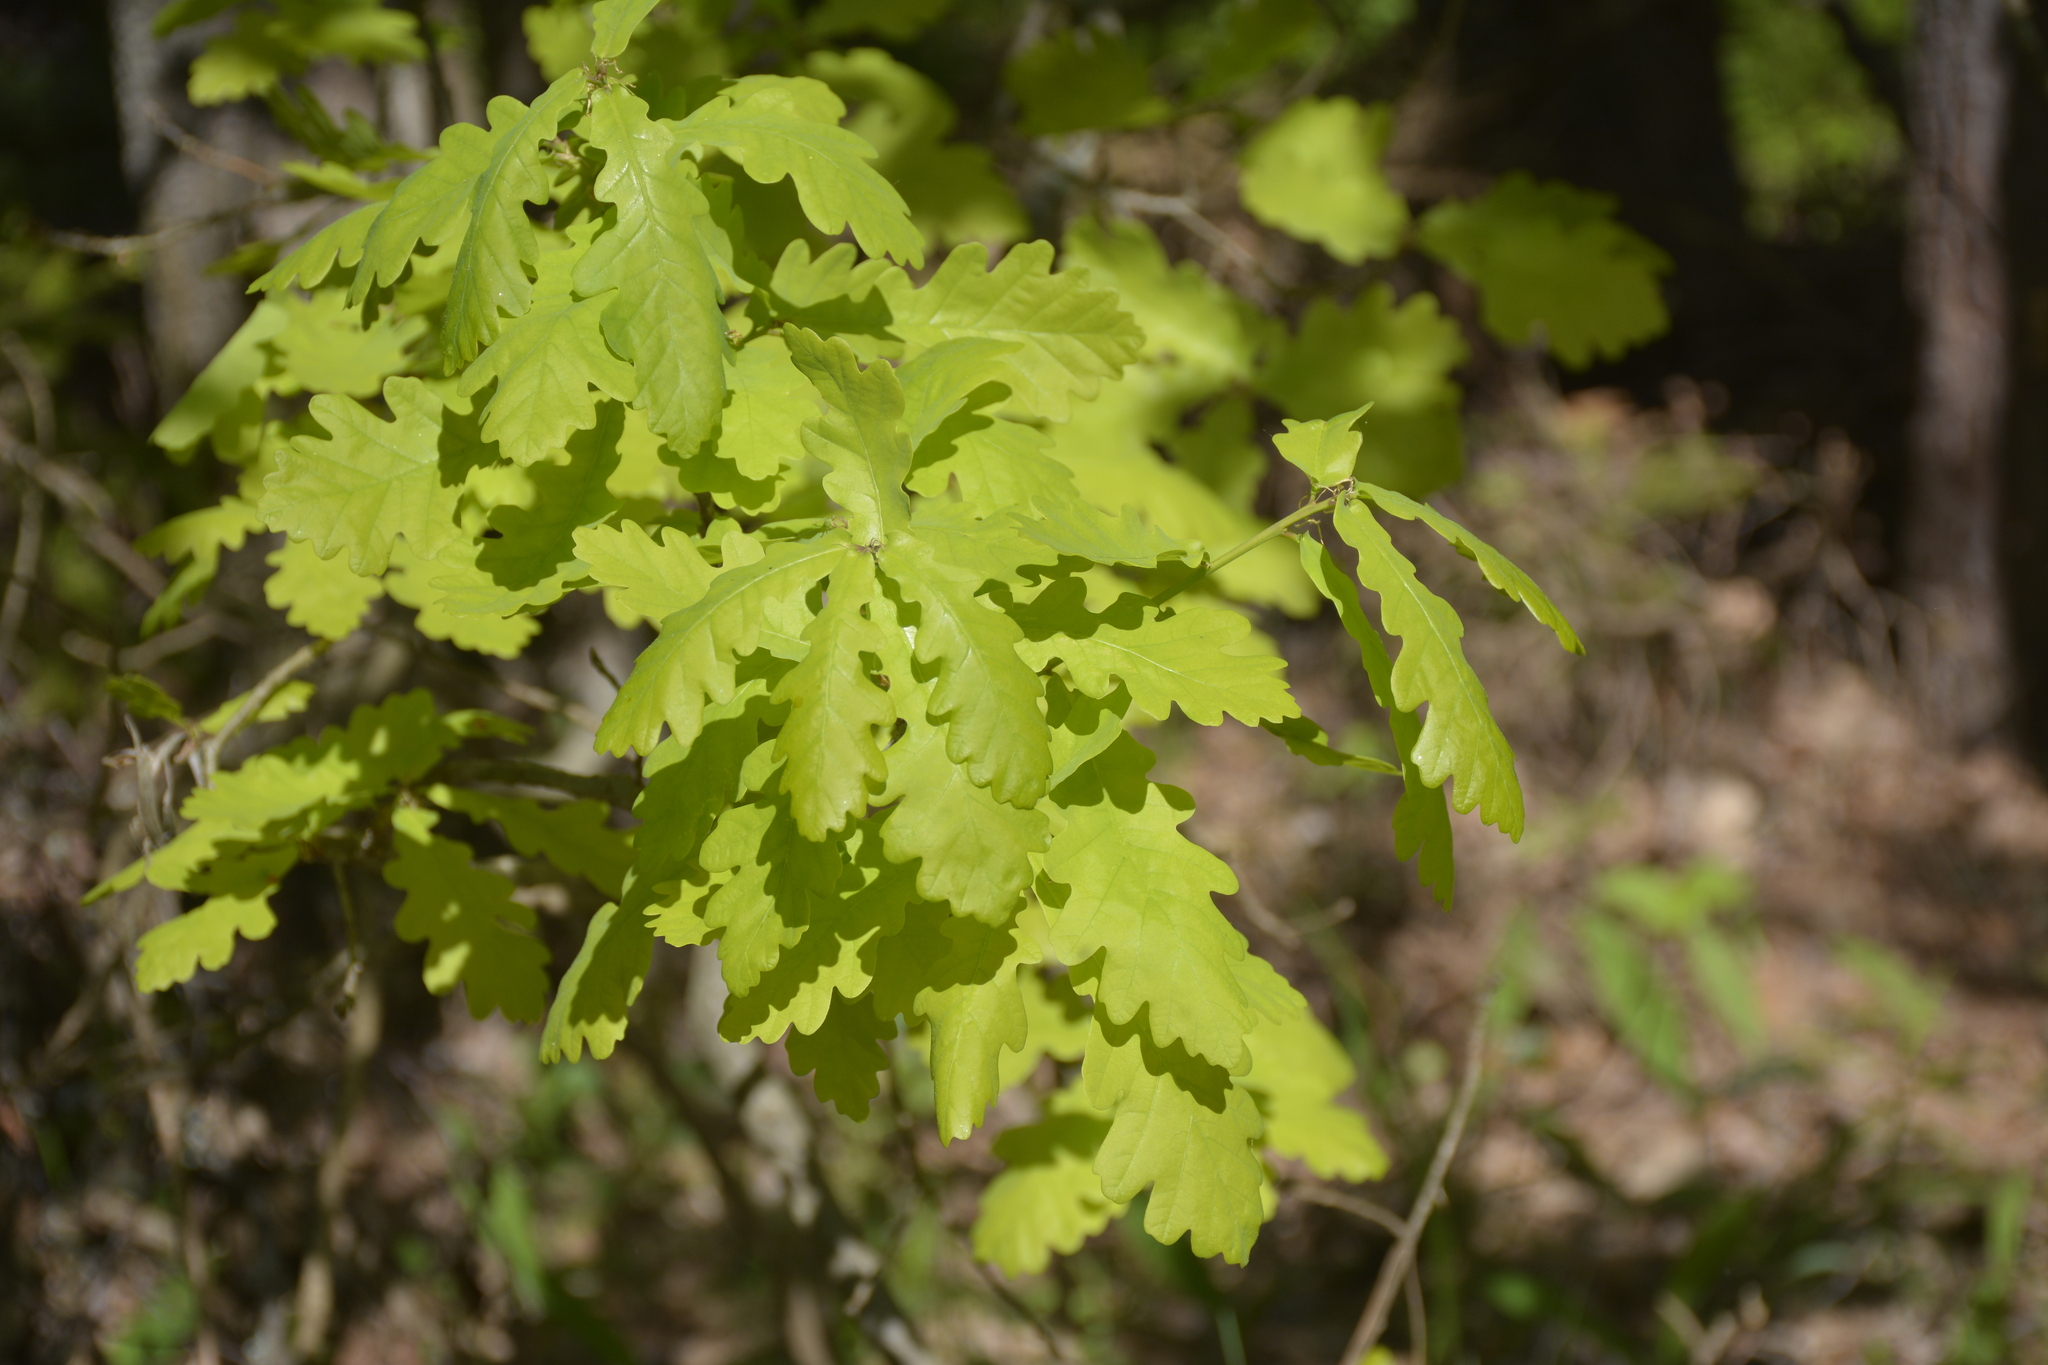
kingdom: Plantae
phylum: Tracheophyta
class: Magnoliopsida
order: Fagales
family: Fagaceae
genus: Quercus
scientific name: Quercus robur
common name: Pedunculate oak
